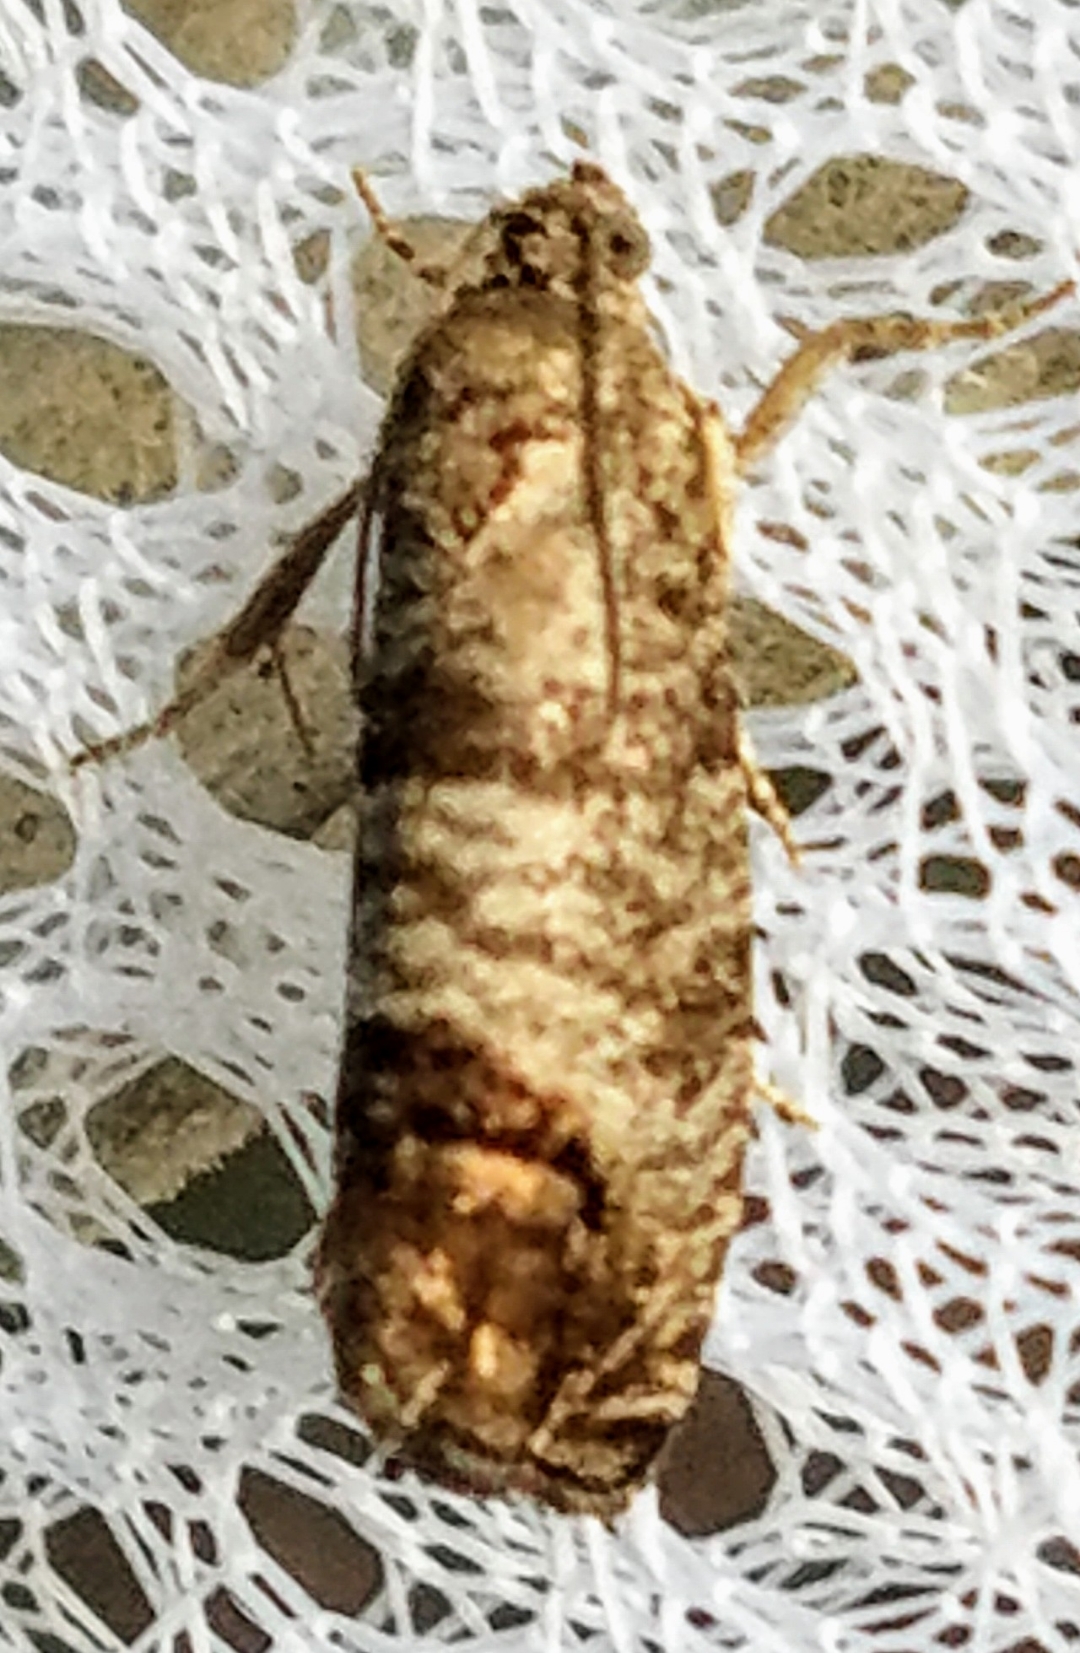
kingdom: Animalia
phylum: Arthropoda
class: Insecta
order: Lepidoptera
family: Tortricidae
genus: Cydia
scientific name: Cydia pomonella
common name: Codling moth
